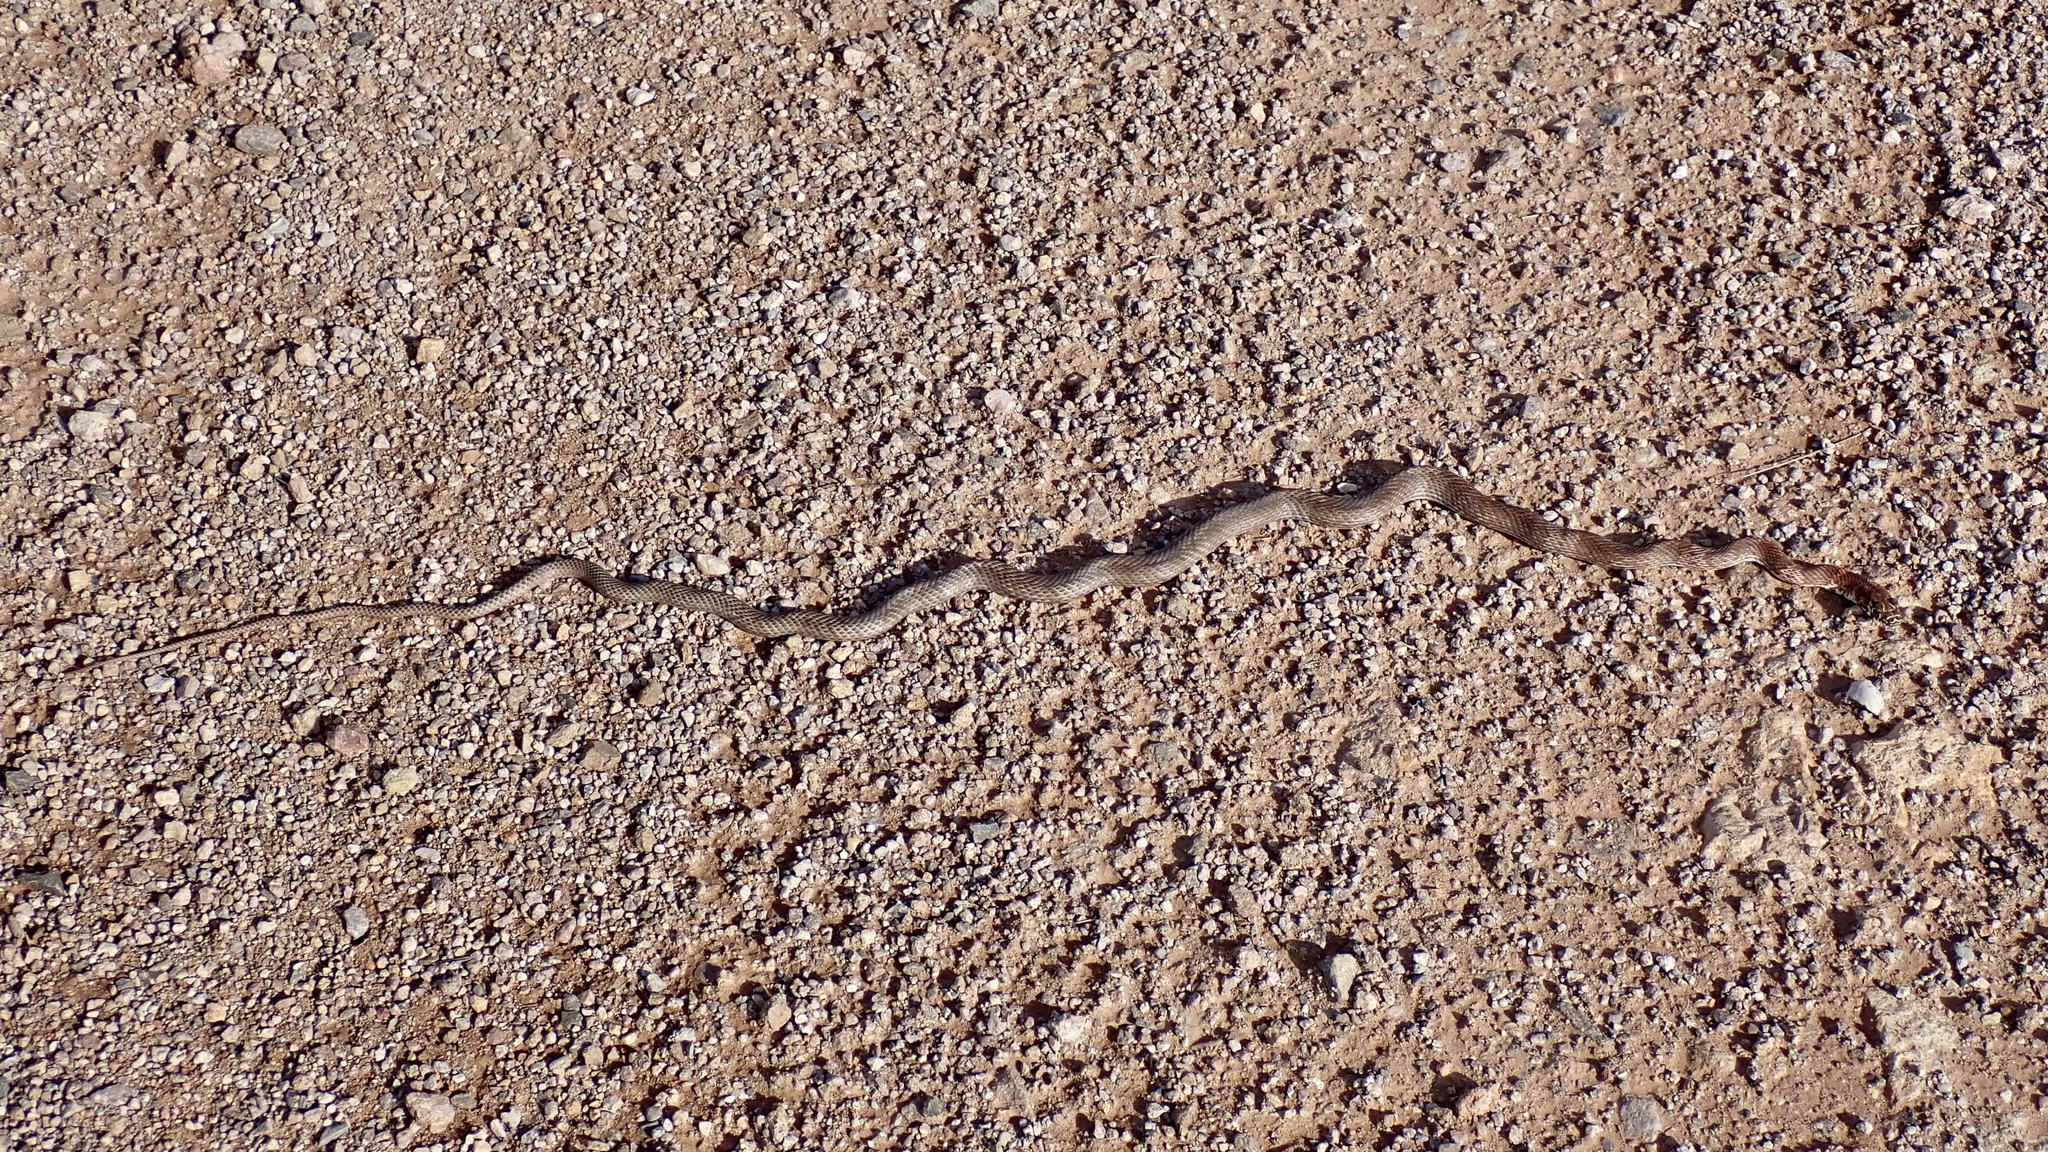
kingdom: Animalia
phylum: Chordata
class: Squamata
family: Colubridae
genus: Masticophis
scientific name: Masticophis flagellum
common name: Coachwhip
